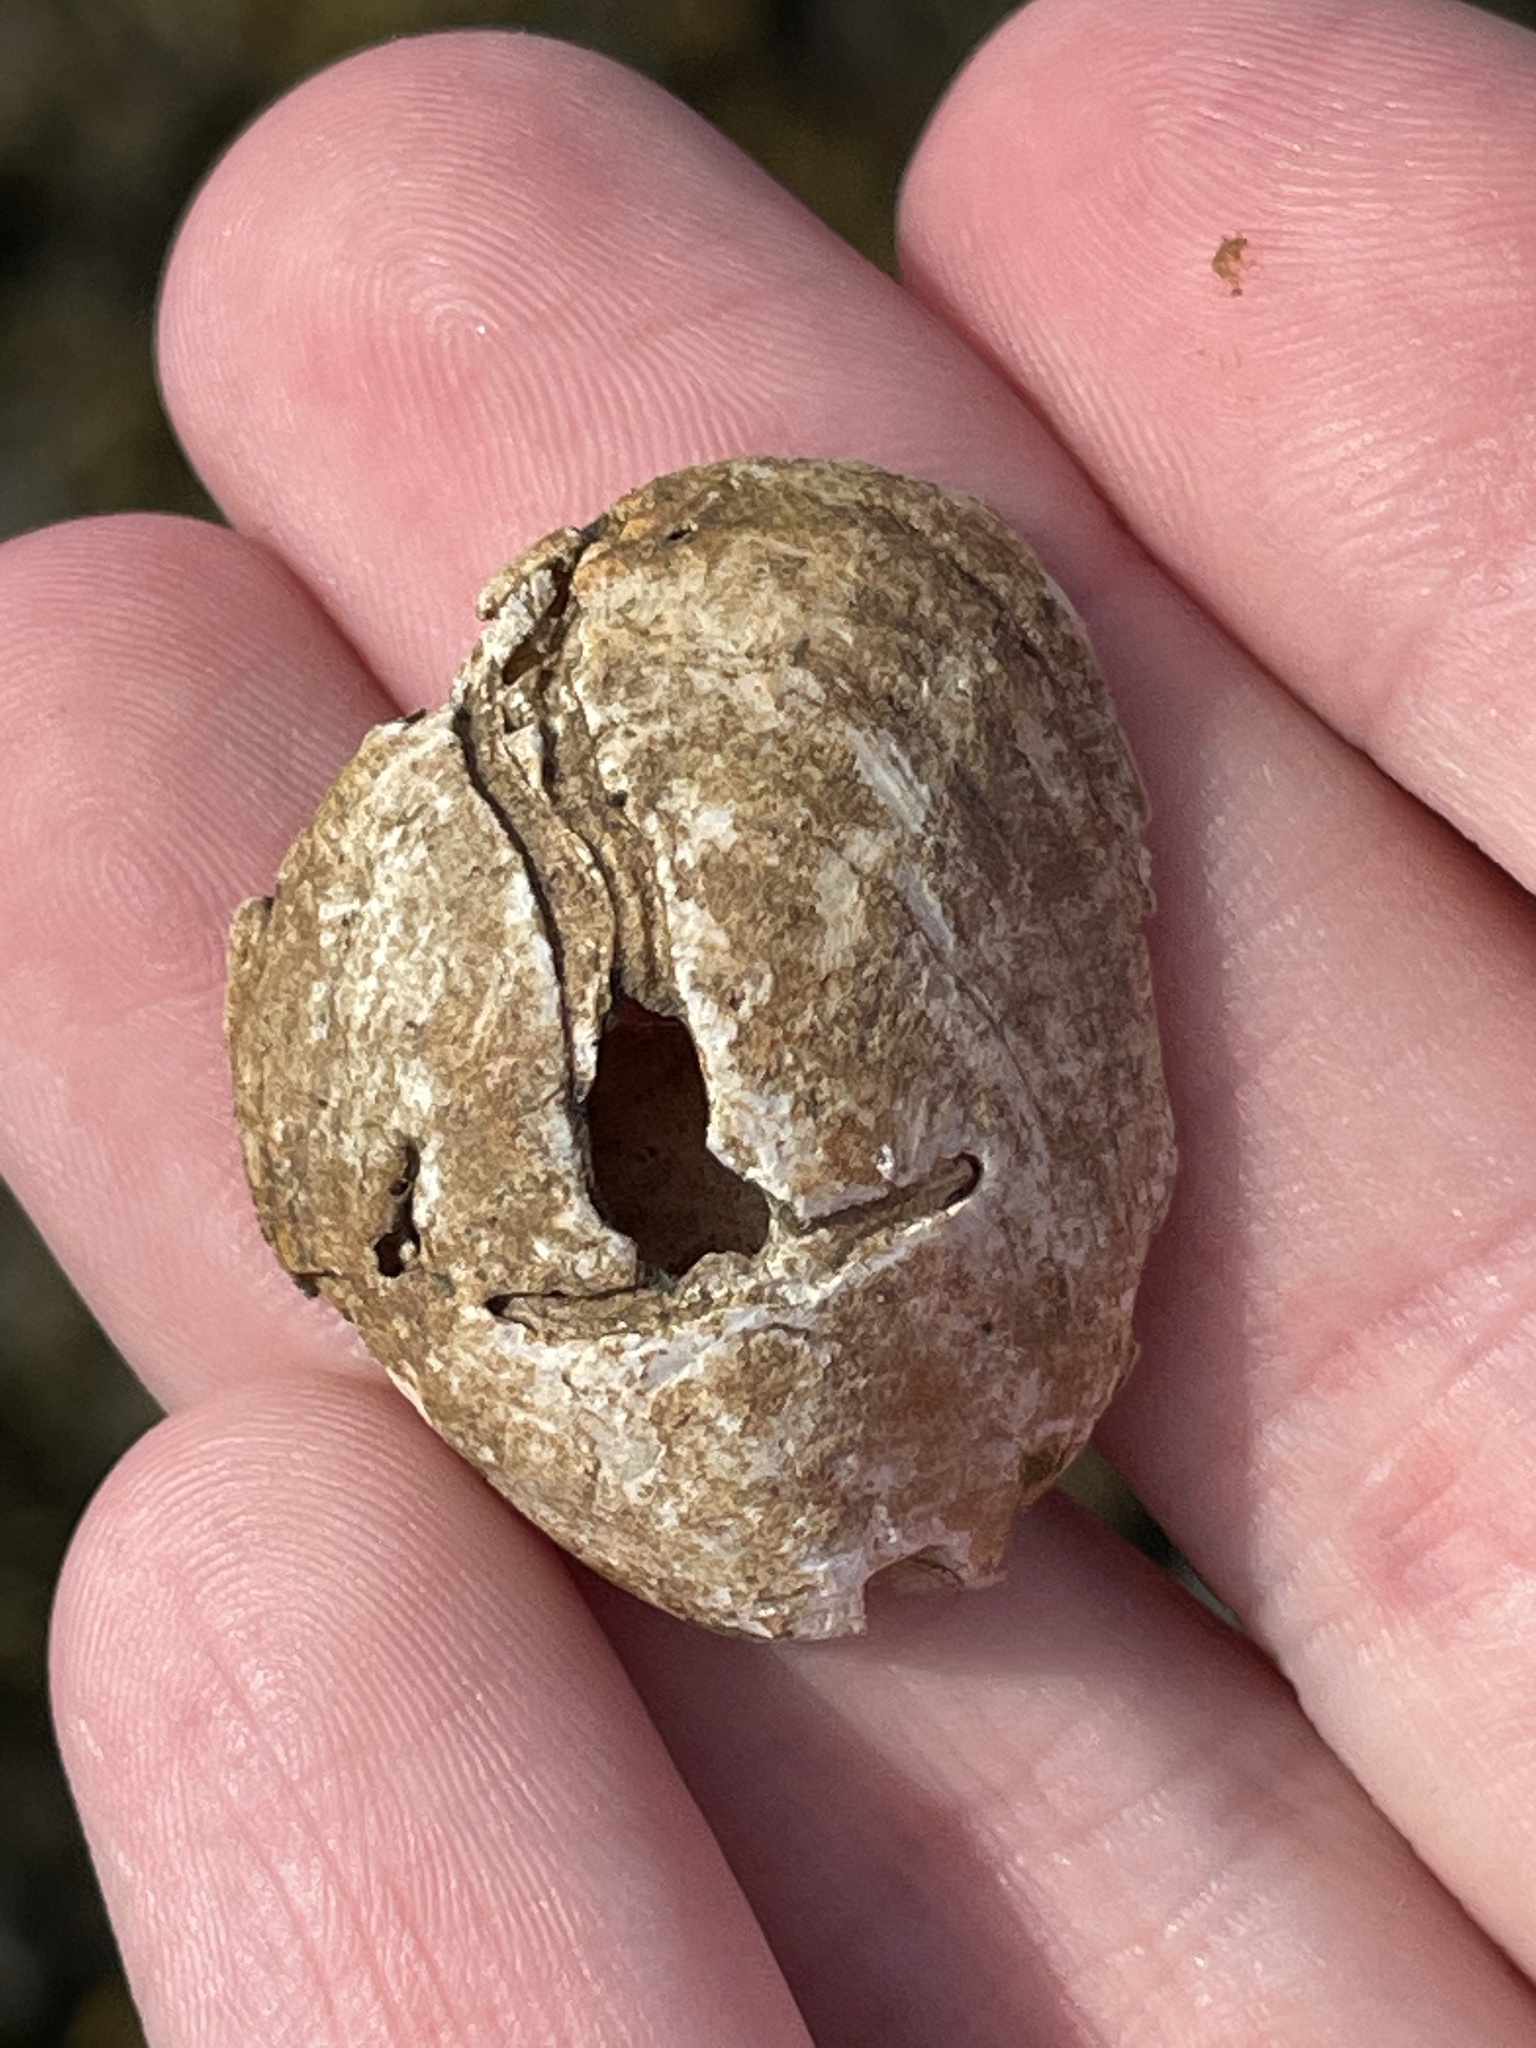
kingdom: Animalia
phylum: Mollusca
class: Gastropoda
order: Littorinimorpha
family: Calyptraeidae
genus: Crepidula
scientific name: Crepidula fornicata
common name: Slipper limpet
